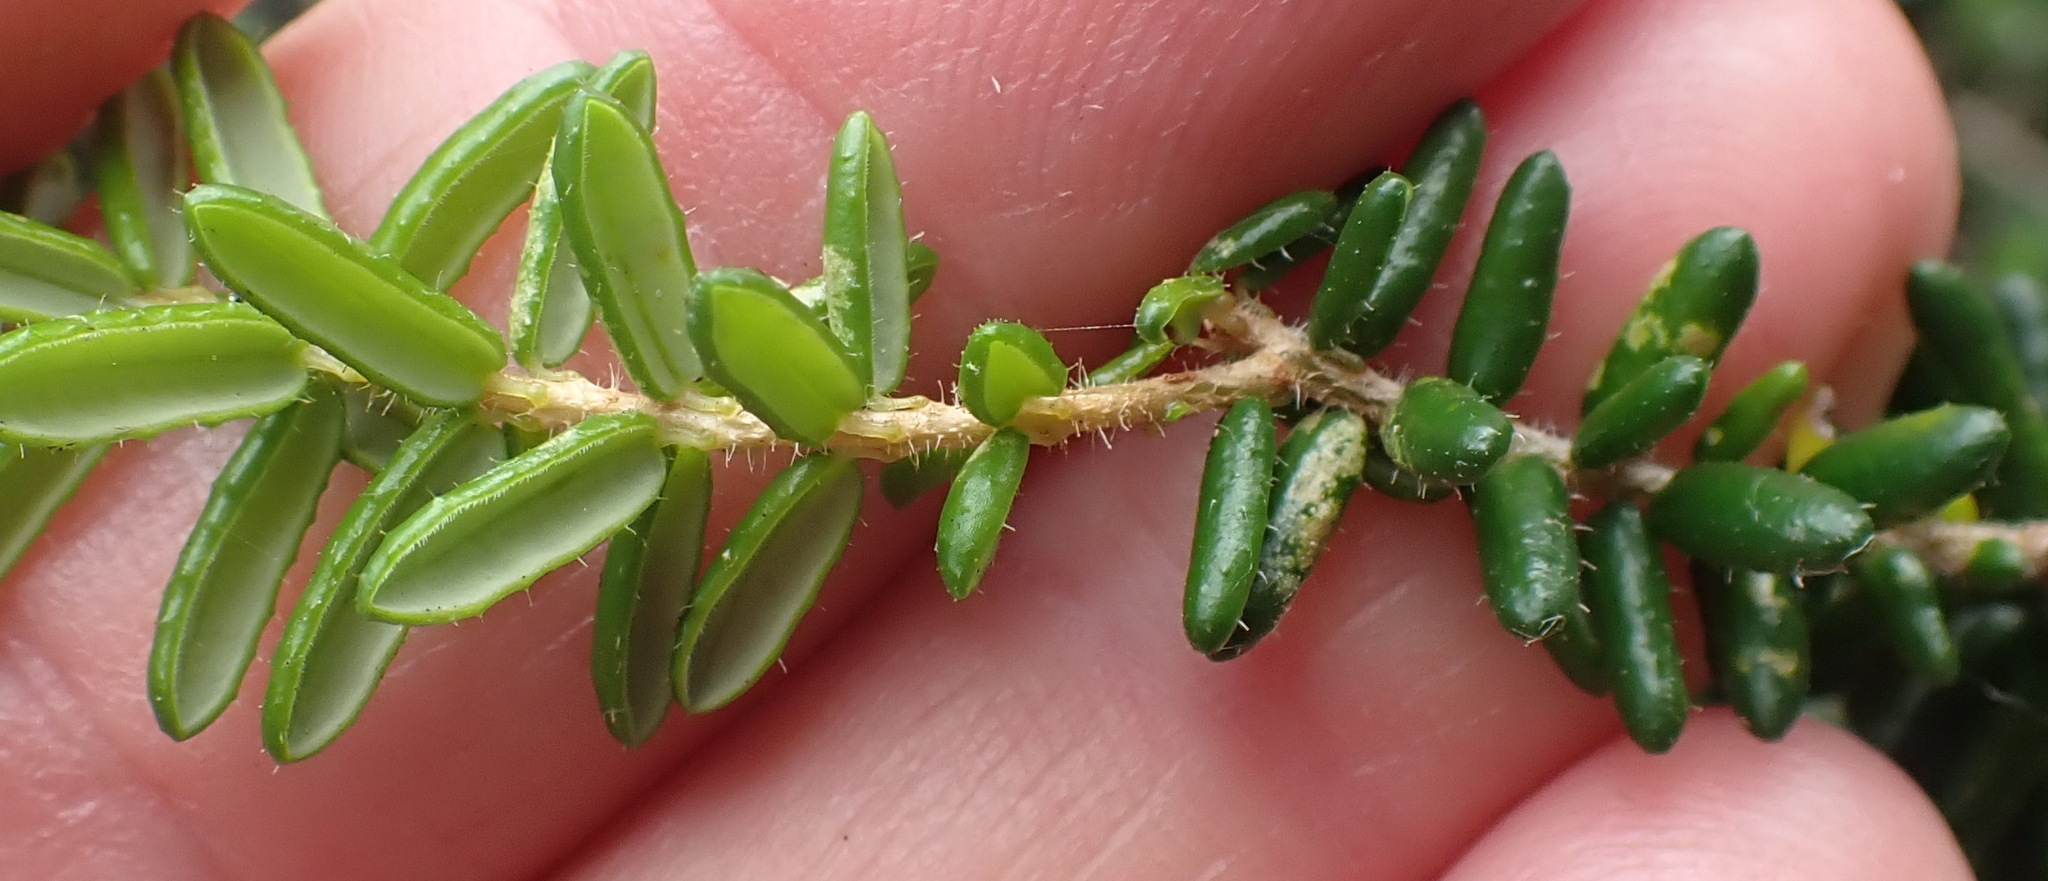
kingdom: Plantae
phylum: Tracheophyta
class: Magnoliopsida
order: Ericales
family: Ericaceae
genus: Erica
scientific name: Erica glandulosa
